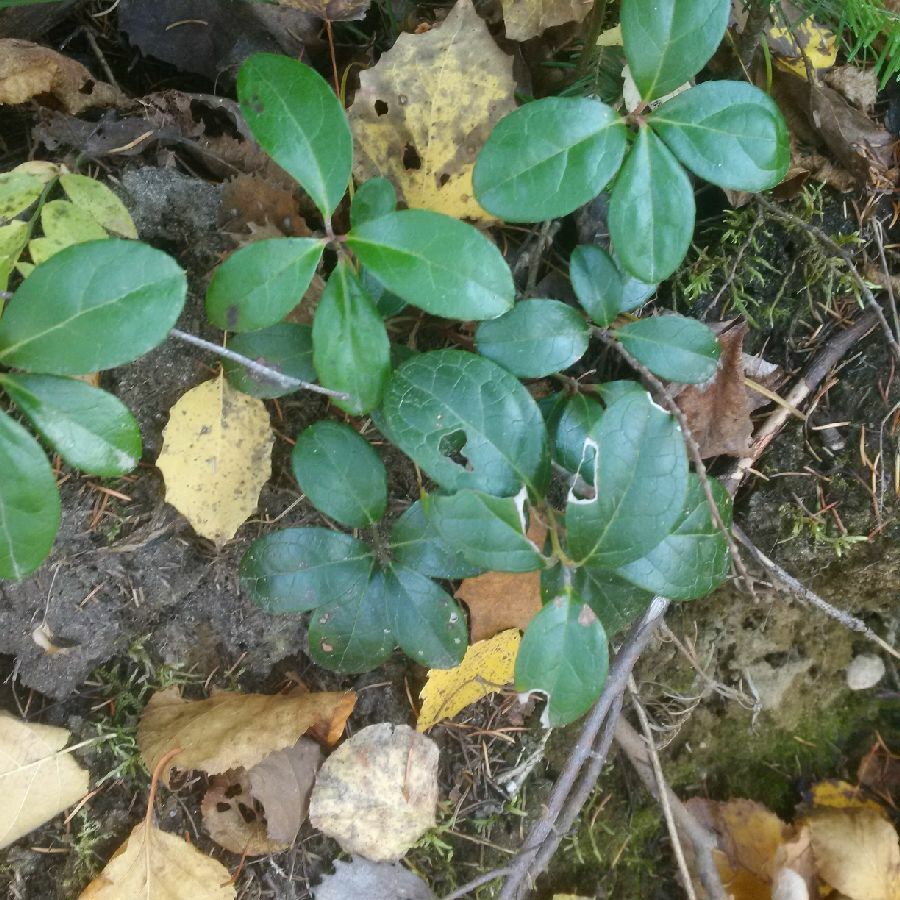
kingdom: Plantae
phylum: Tracheophyta
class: Magnoliopsida
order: Ericales
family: Ericaceae
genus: Gaultheria
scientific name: Gaultheria procumbens
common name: Checkerberry
